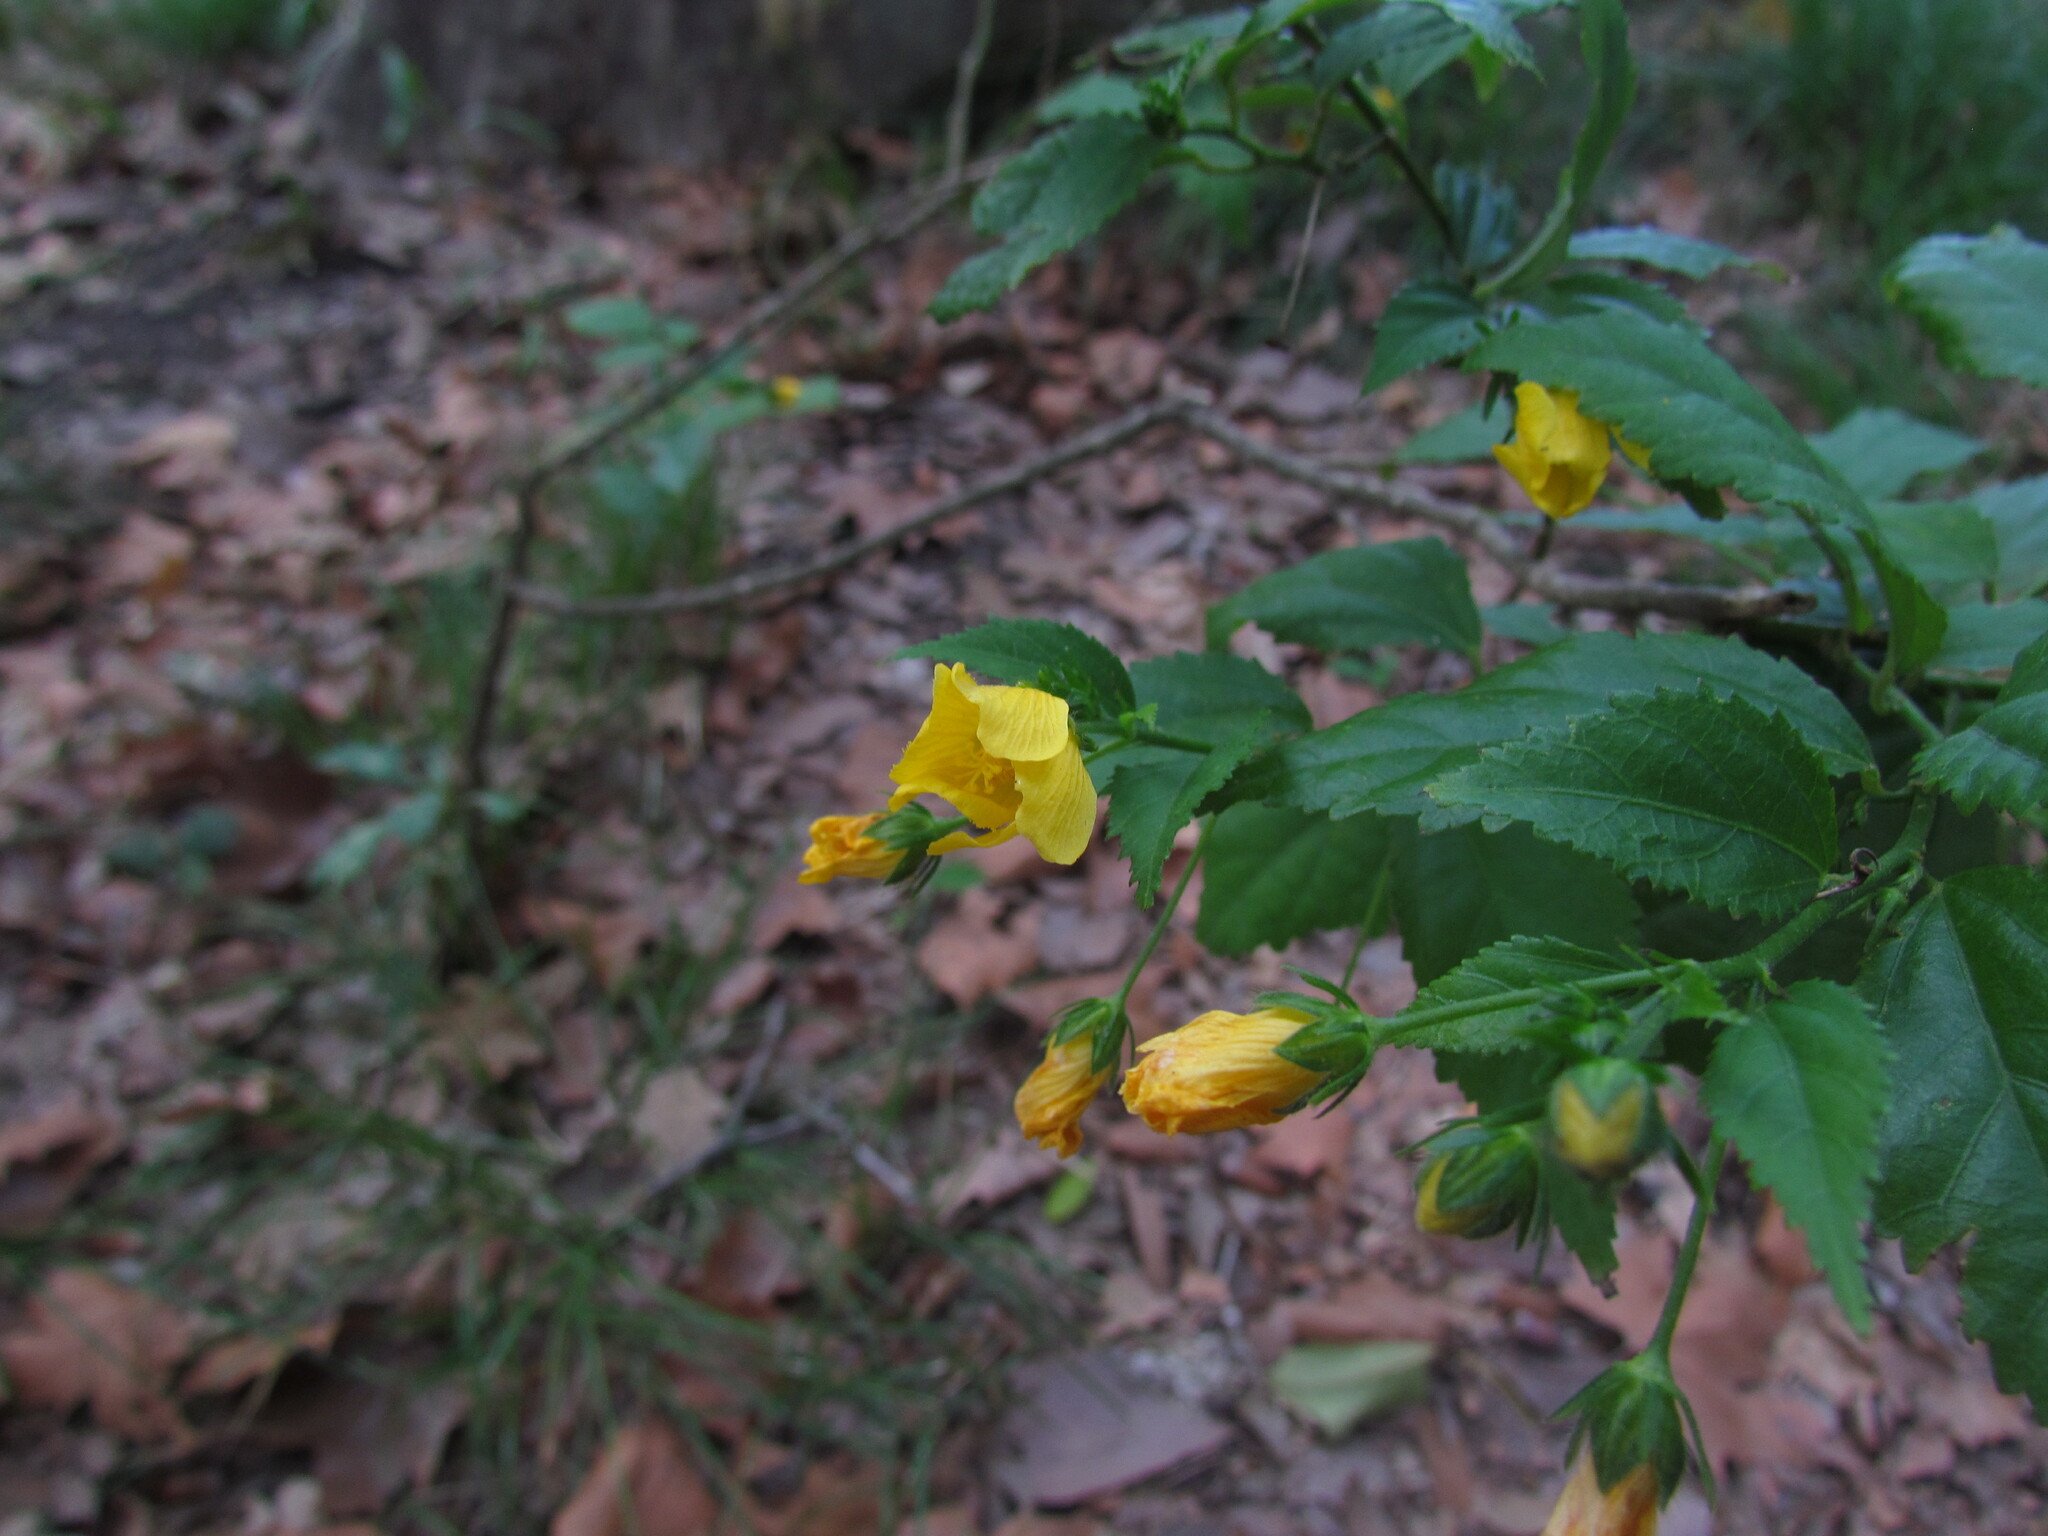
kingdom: Plantae
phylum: Tracheophyta
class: Magnoliopsida
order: Malvales
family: Malvaceae
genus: Pavonia
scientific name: Pavonia sepium
